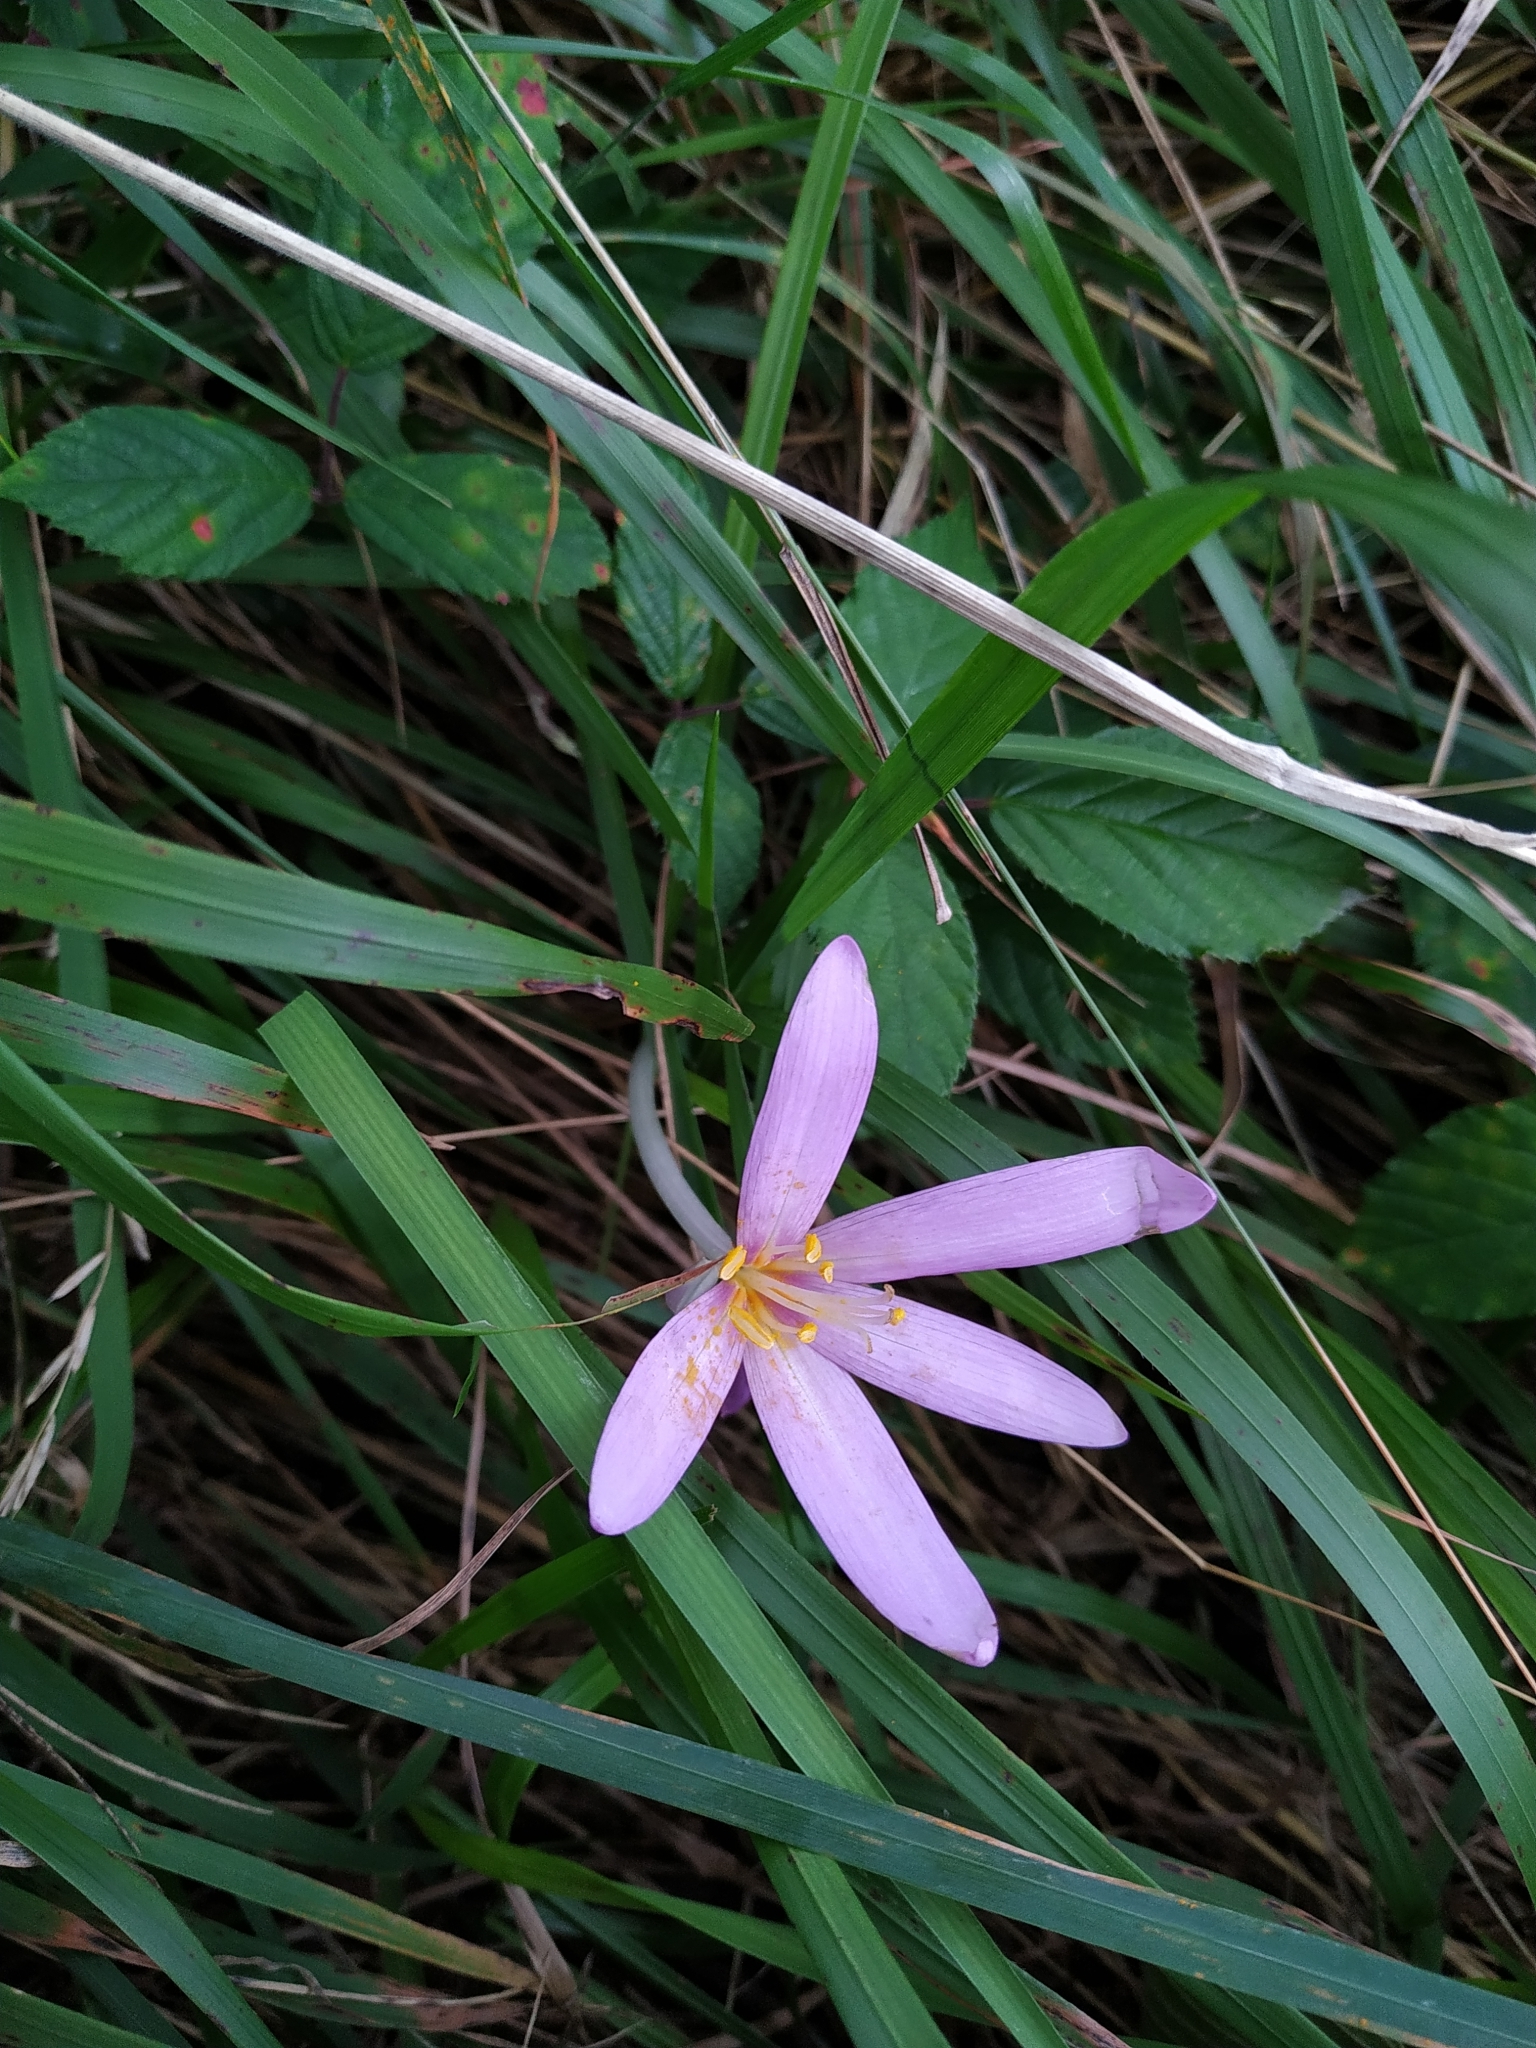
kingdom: Plantae
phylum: Tracheophyta
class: Liliopsida
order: Liliales
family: Colchicaceae
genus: Colchicum
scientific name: Colchicum autumnale
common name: Autumn crocus
